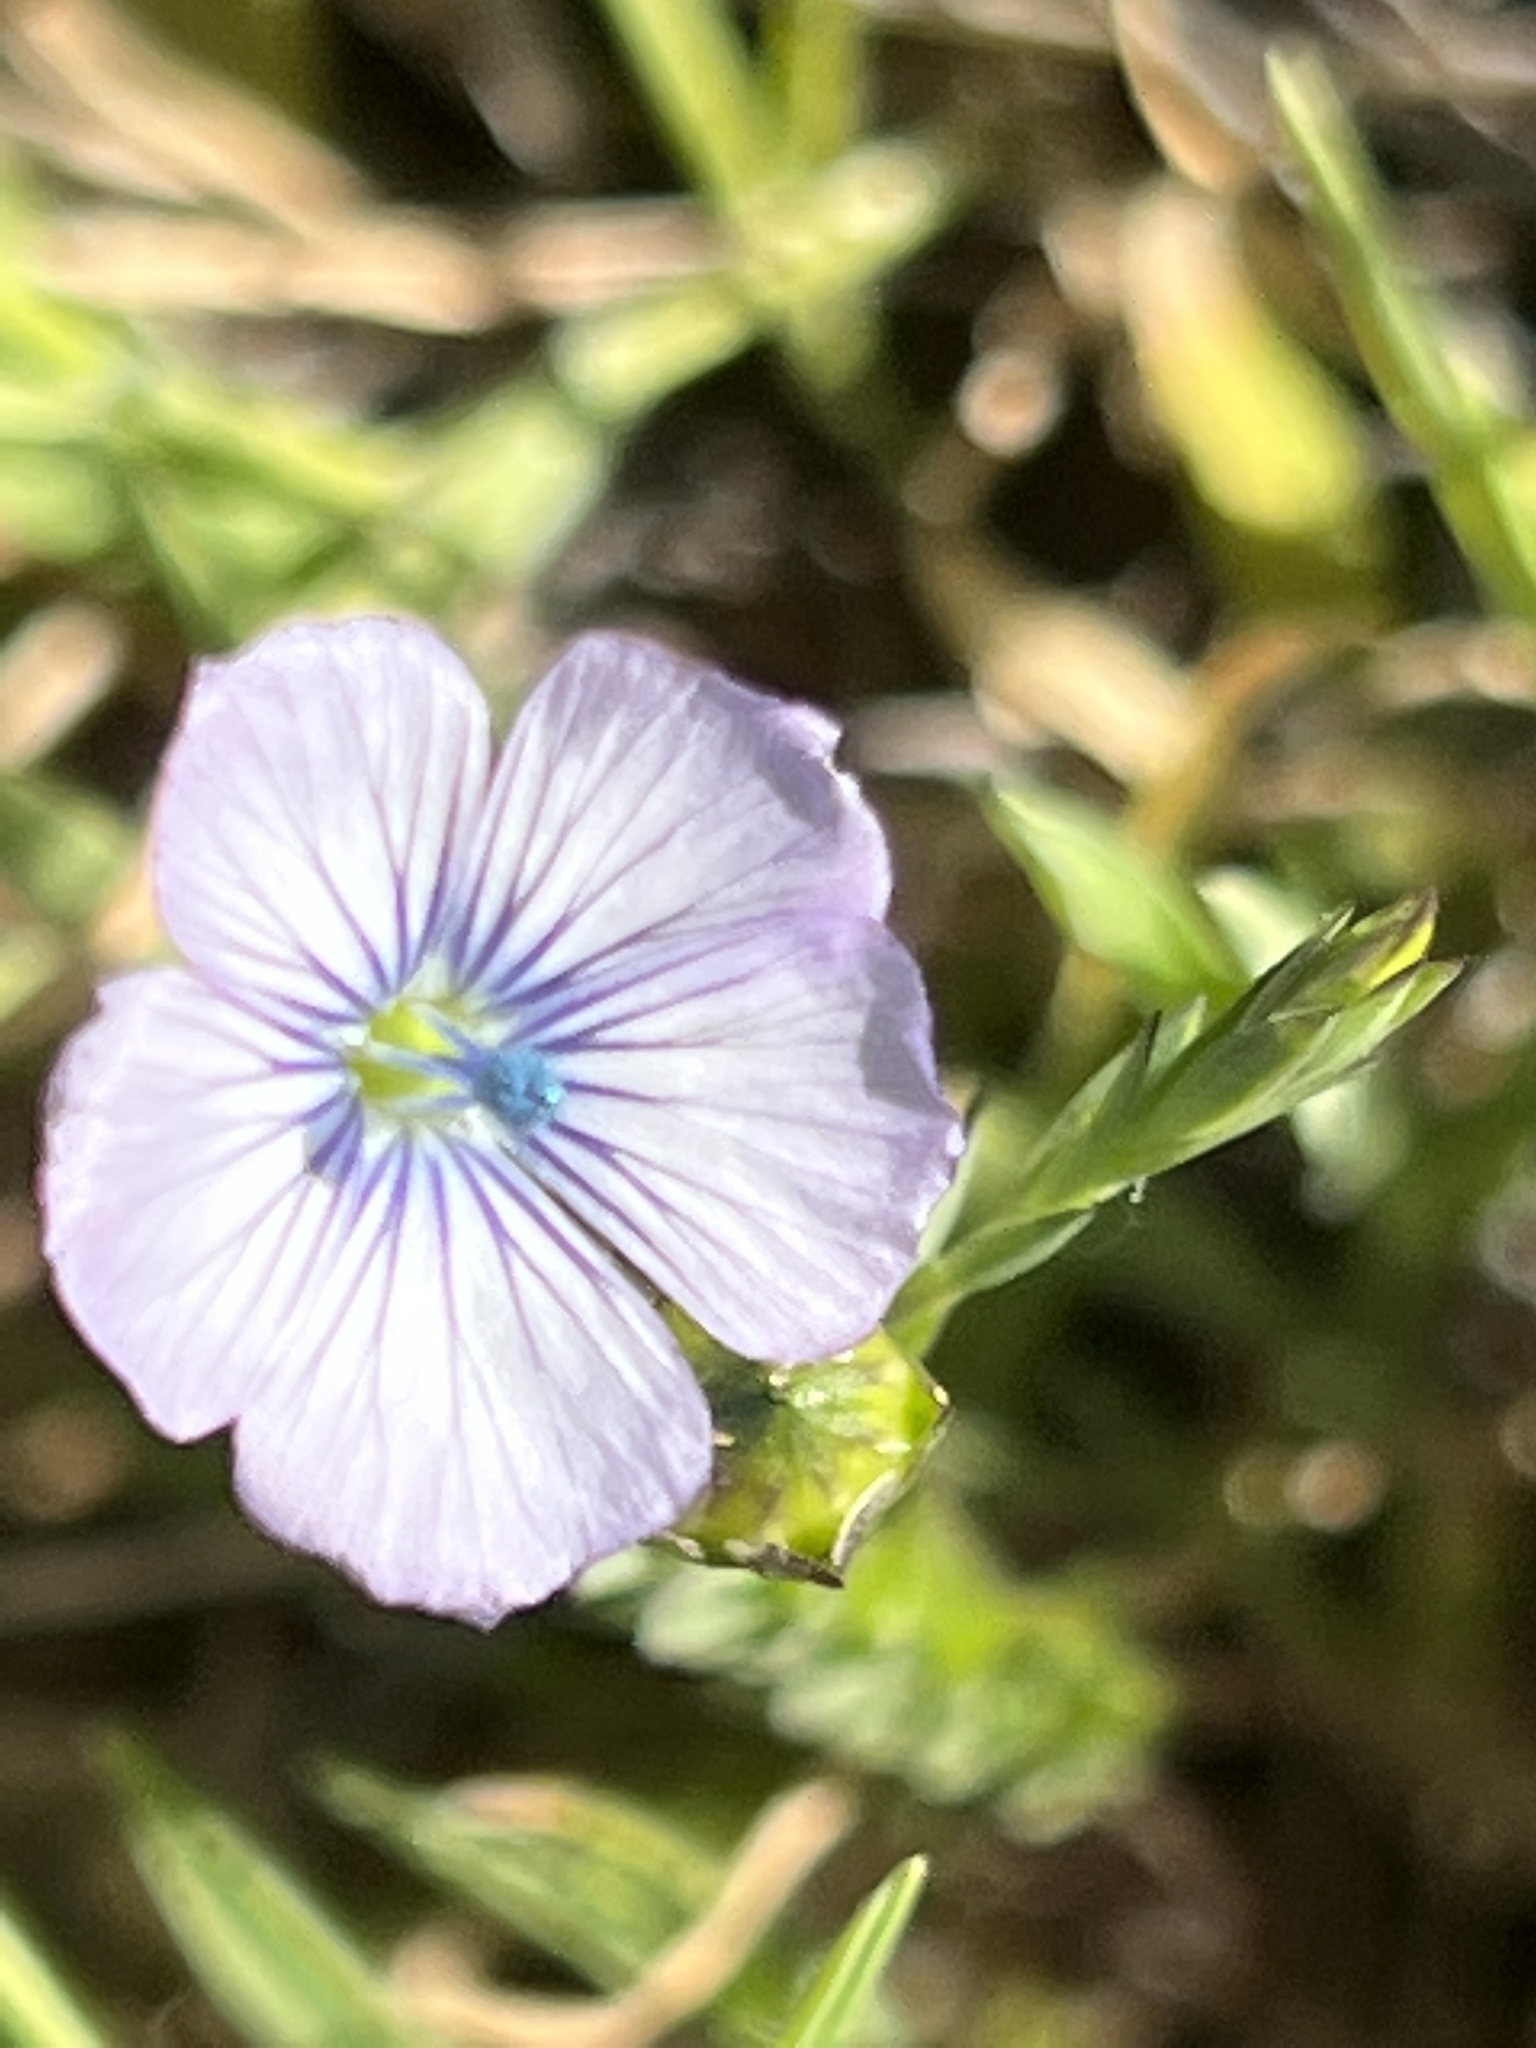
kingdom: Plantae
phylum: Tracheophyta
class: Magnoliopsida
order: Malpighiales
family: Linaceae
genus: Linum
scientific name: Linum bienne
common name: Pale flax
